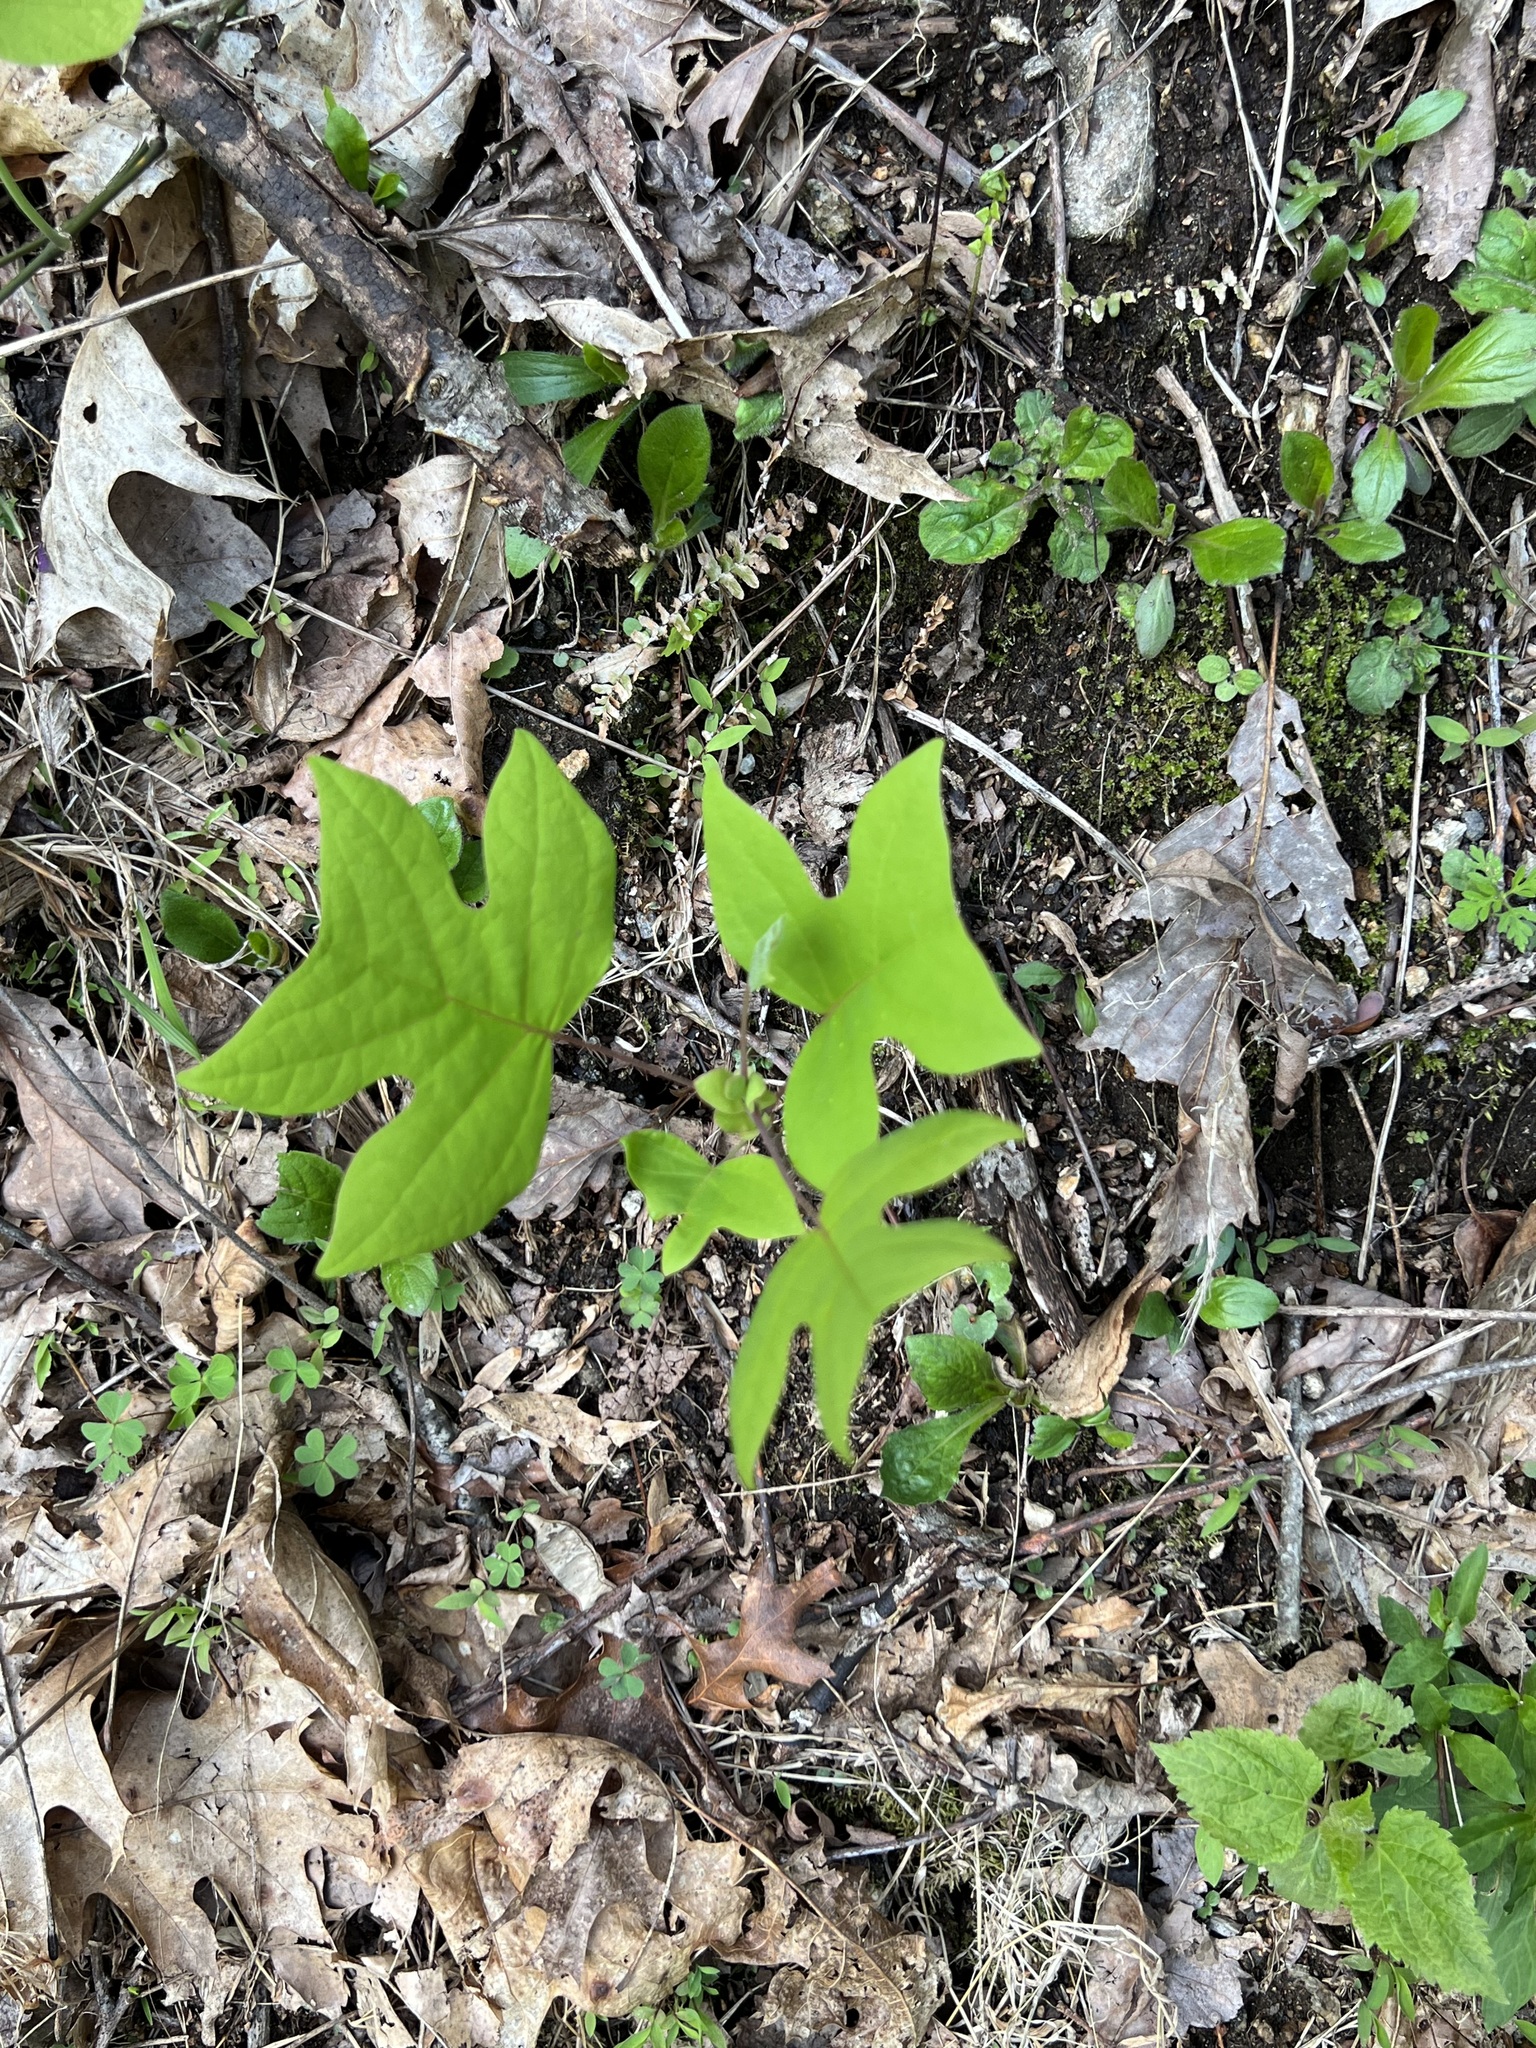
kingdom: Plantae
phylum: Tracheophyta
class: Magnoliopsida
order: Magnoliales
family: Magnoliaceae
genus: Liriodendron
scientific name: Liriodendron tulipifera
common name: Tulip tree
